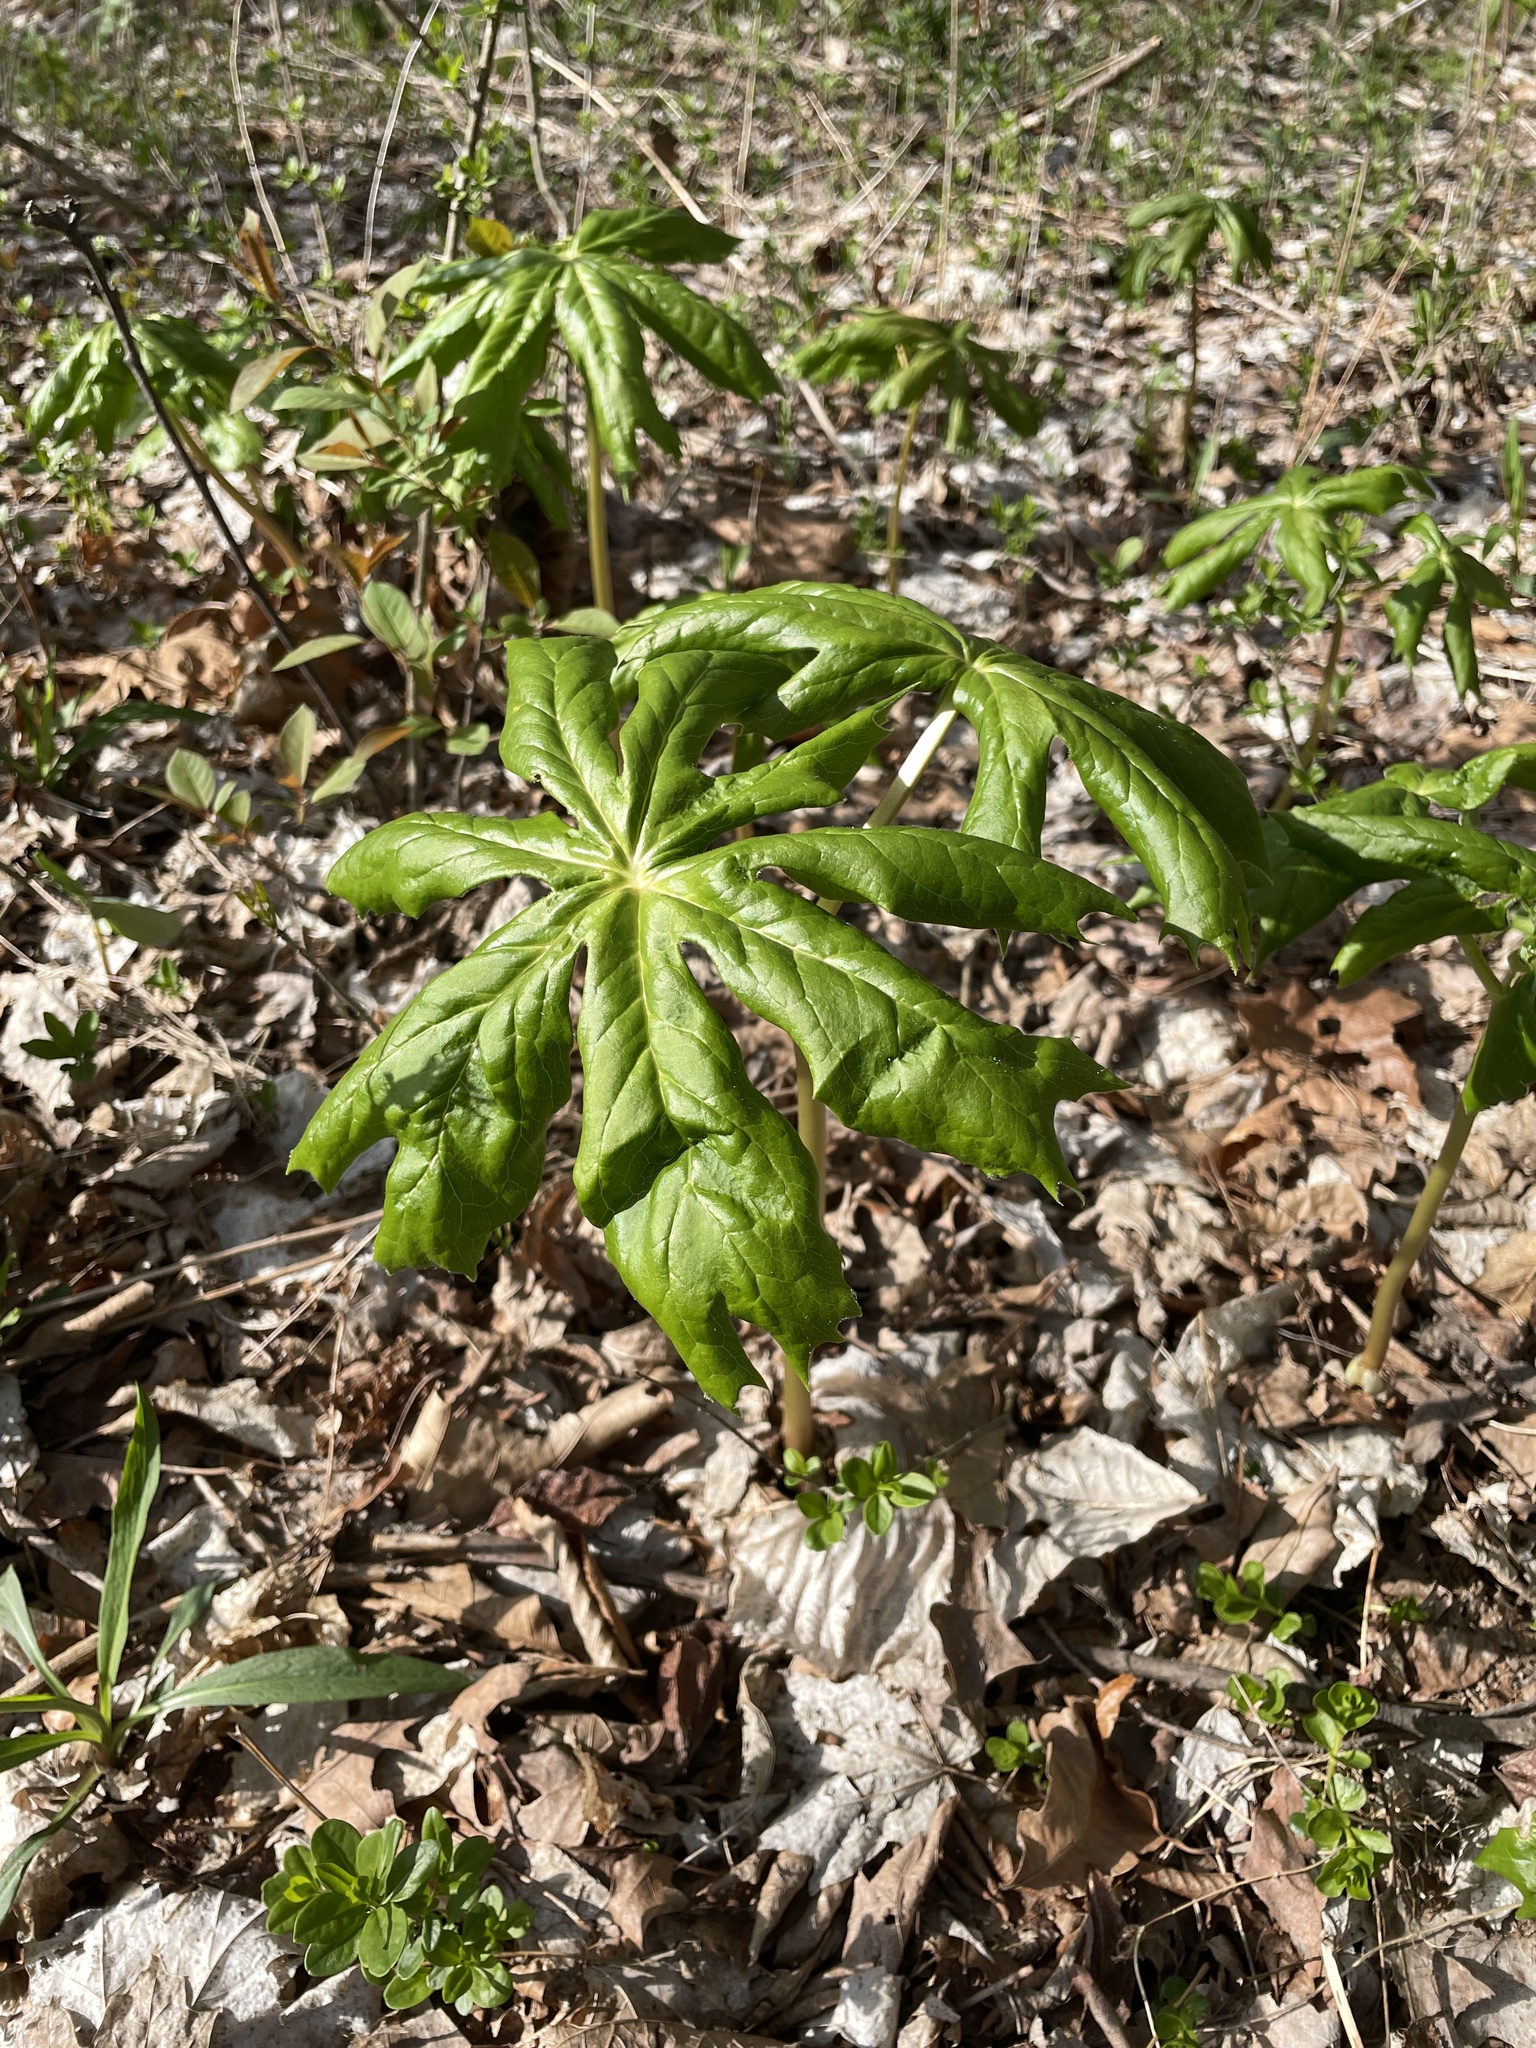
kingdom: Plantae
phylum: Tracheophyta
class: Magnoliopsida
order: Ranunculales
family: Berberidaceae
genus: Podophyllum
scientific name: Podophyllum peltatum
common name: Wild mandrake
